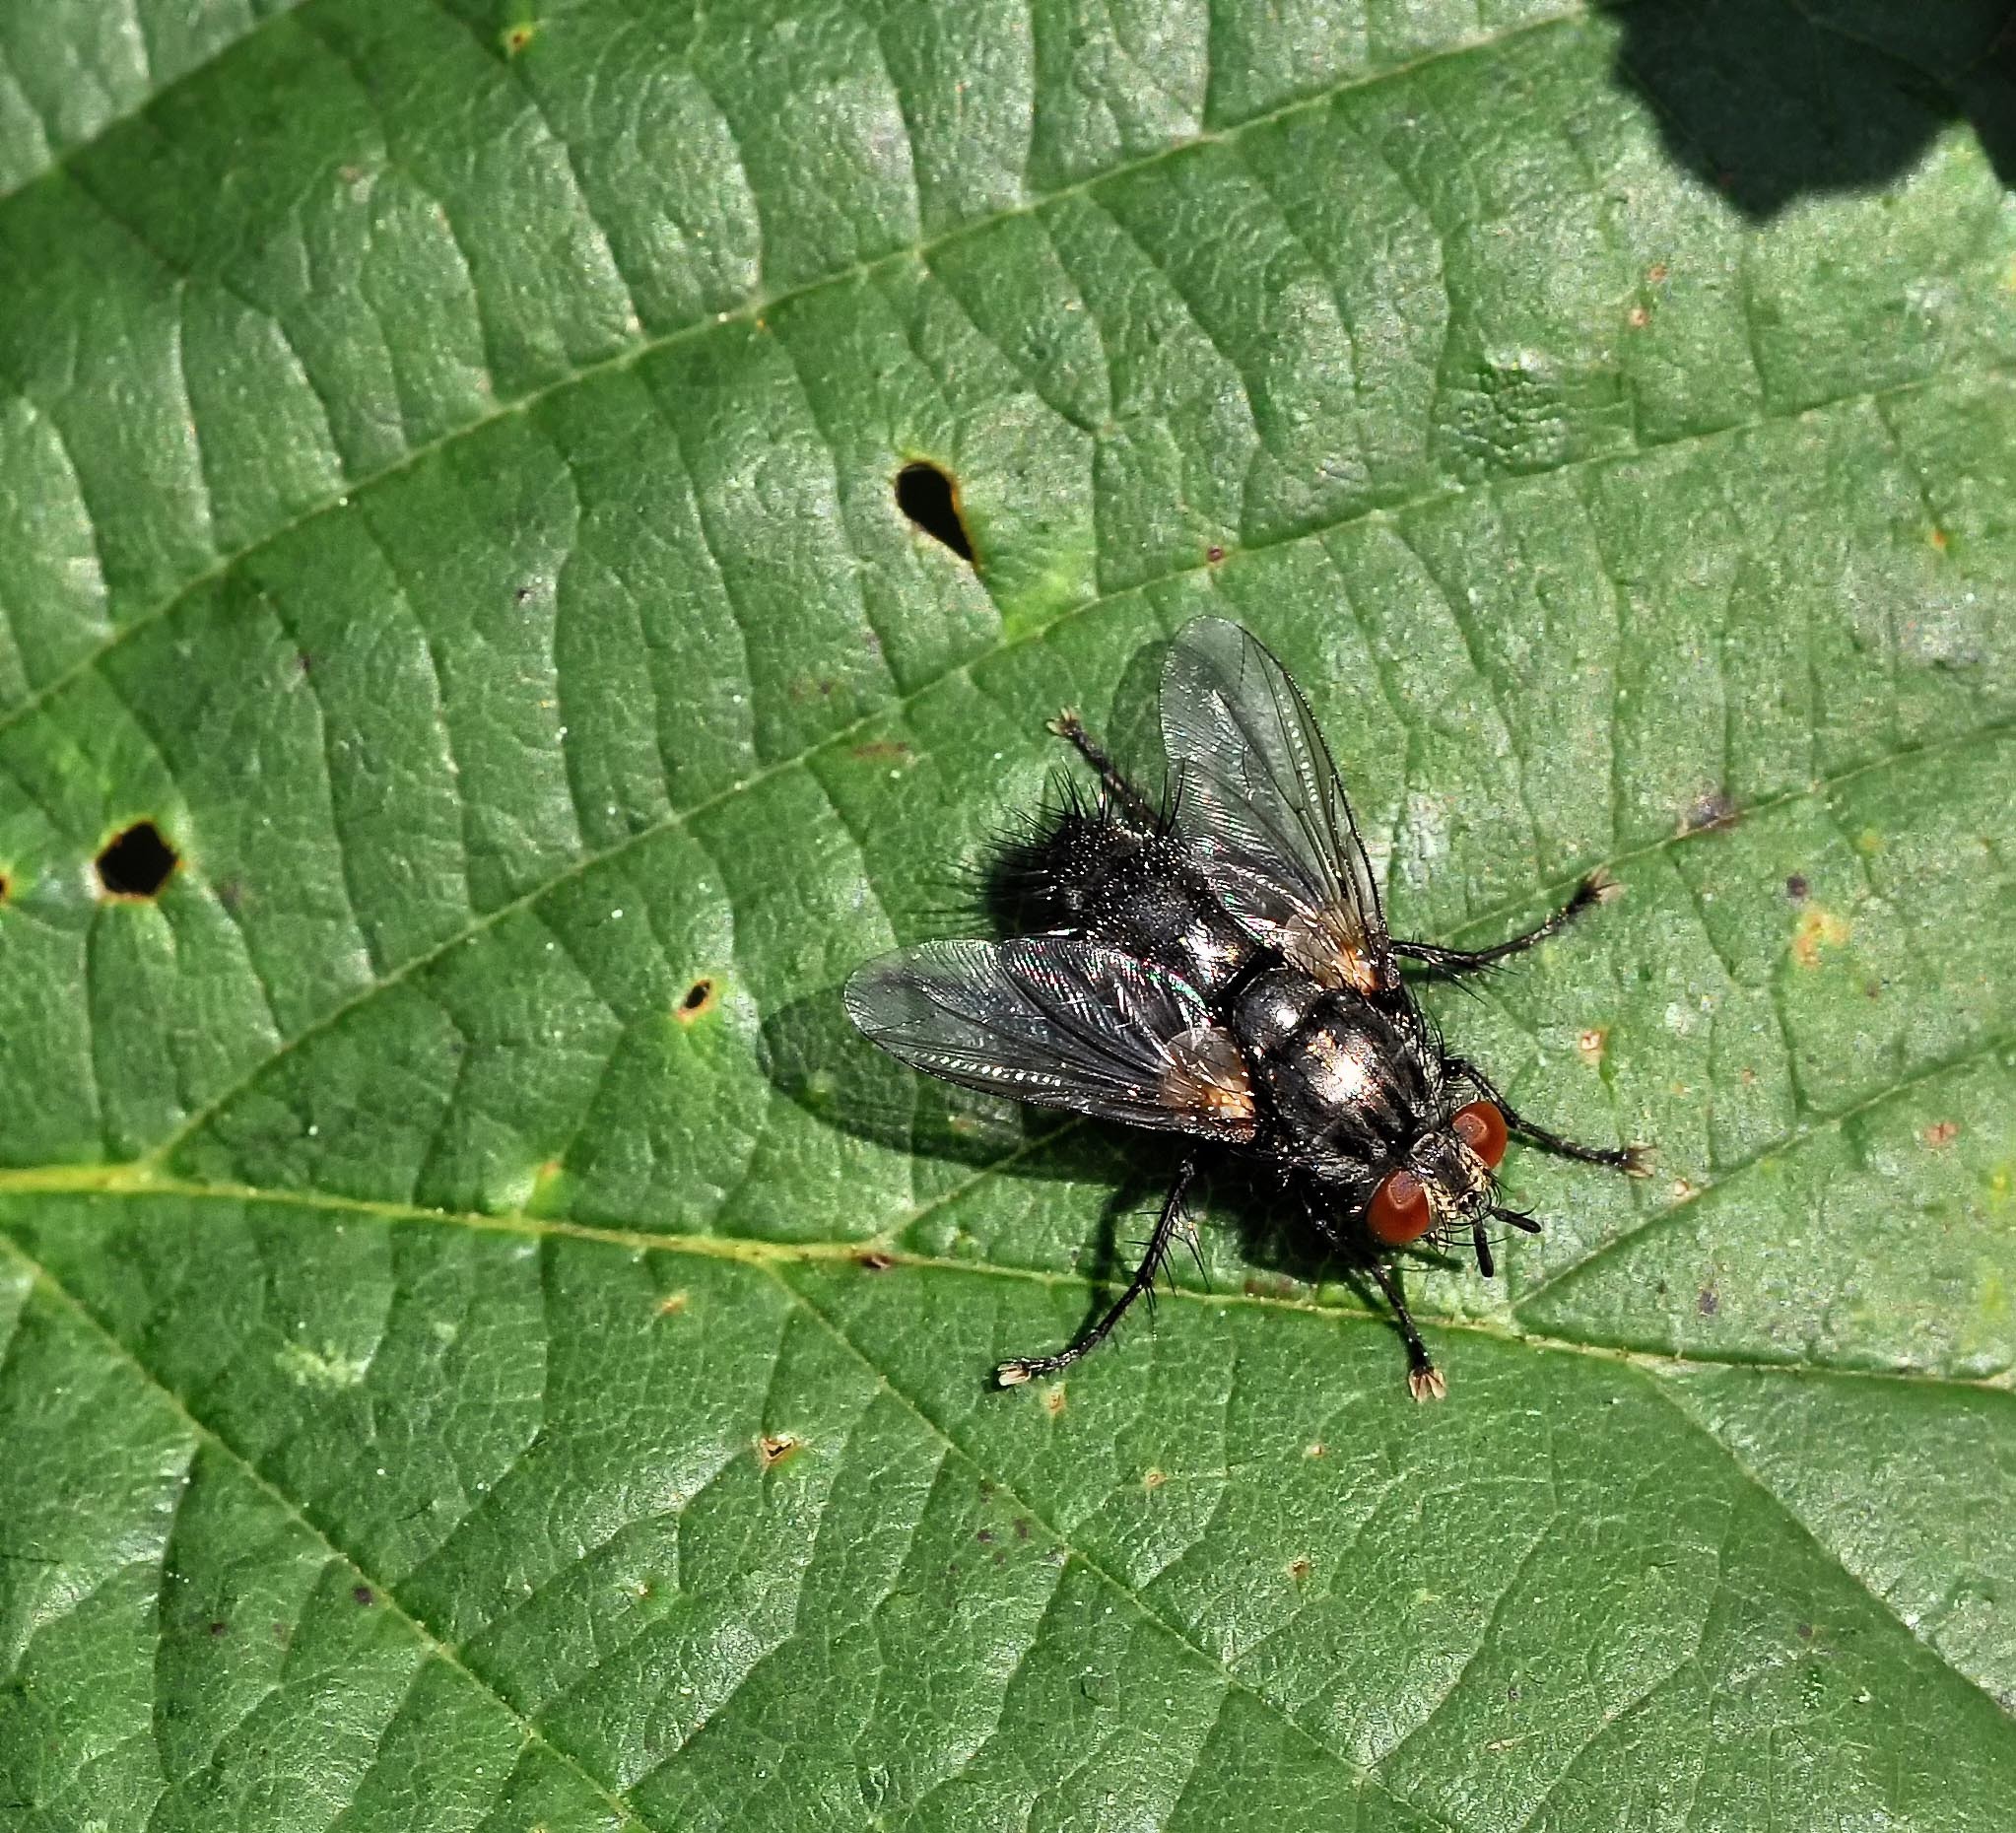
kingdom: Animalia
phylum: Arthropoda
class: Insecta
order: Diptera
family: Tachinidae
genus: Voria
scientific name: Voria ruralis
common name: Parasitic fly
